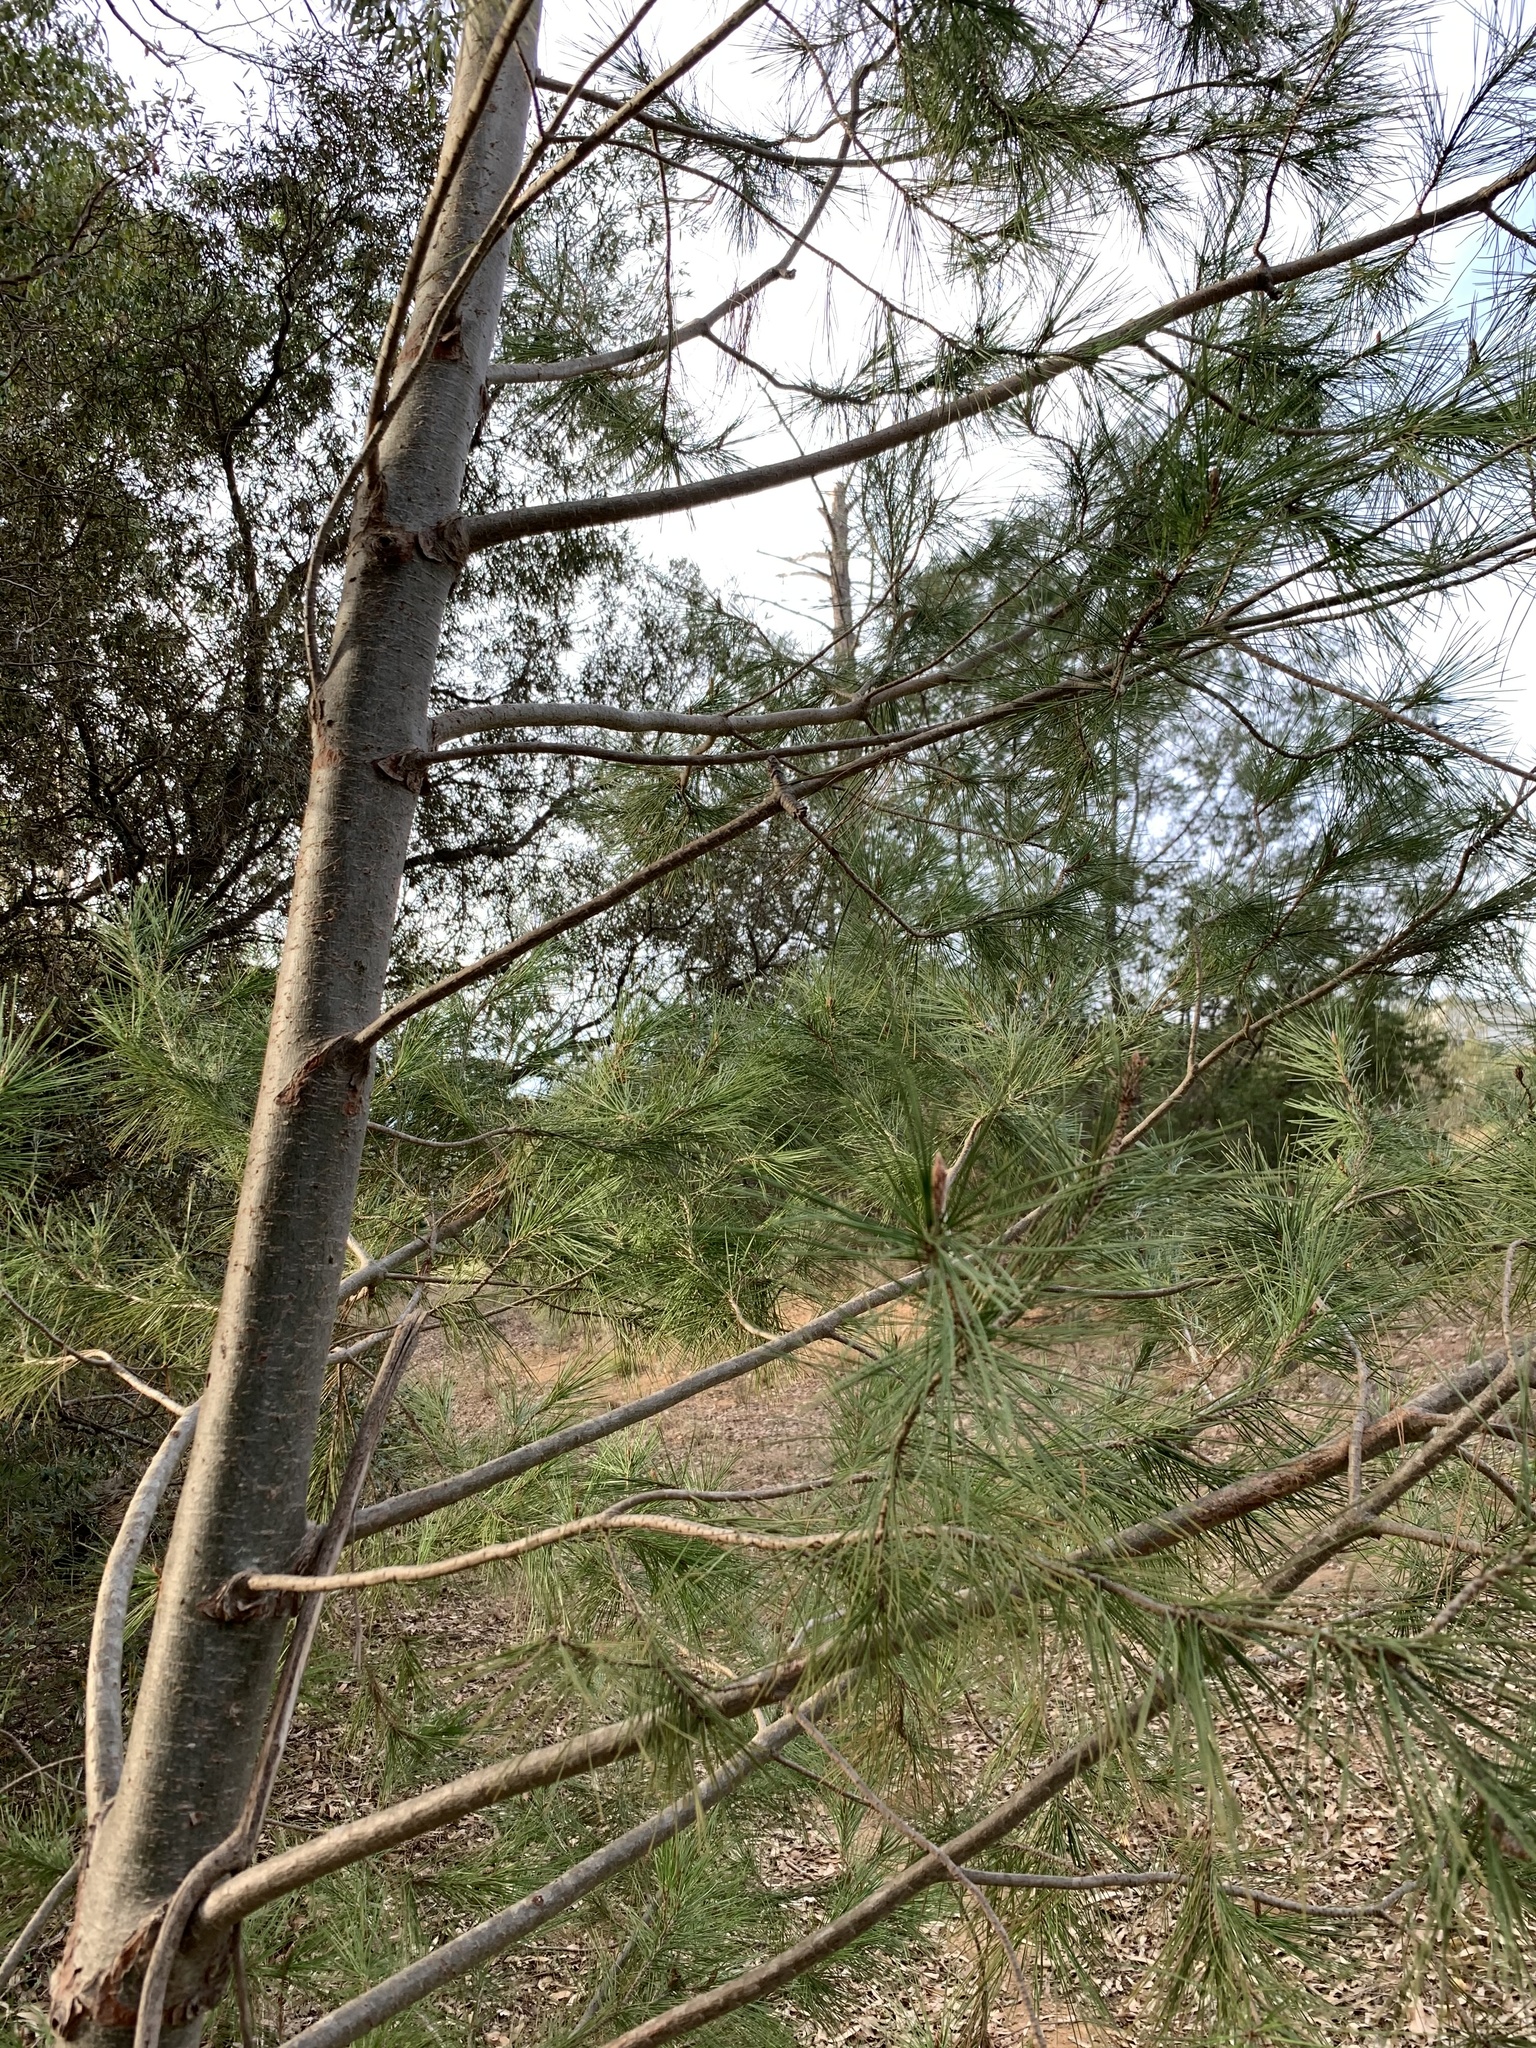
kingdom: Plantae
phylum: Tracheophyta
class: Pinopsida
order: Pinales
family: Pinaceae
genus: Pinus
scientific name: Pinus halepensis
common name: Aleppo pine
